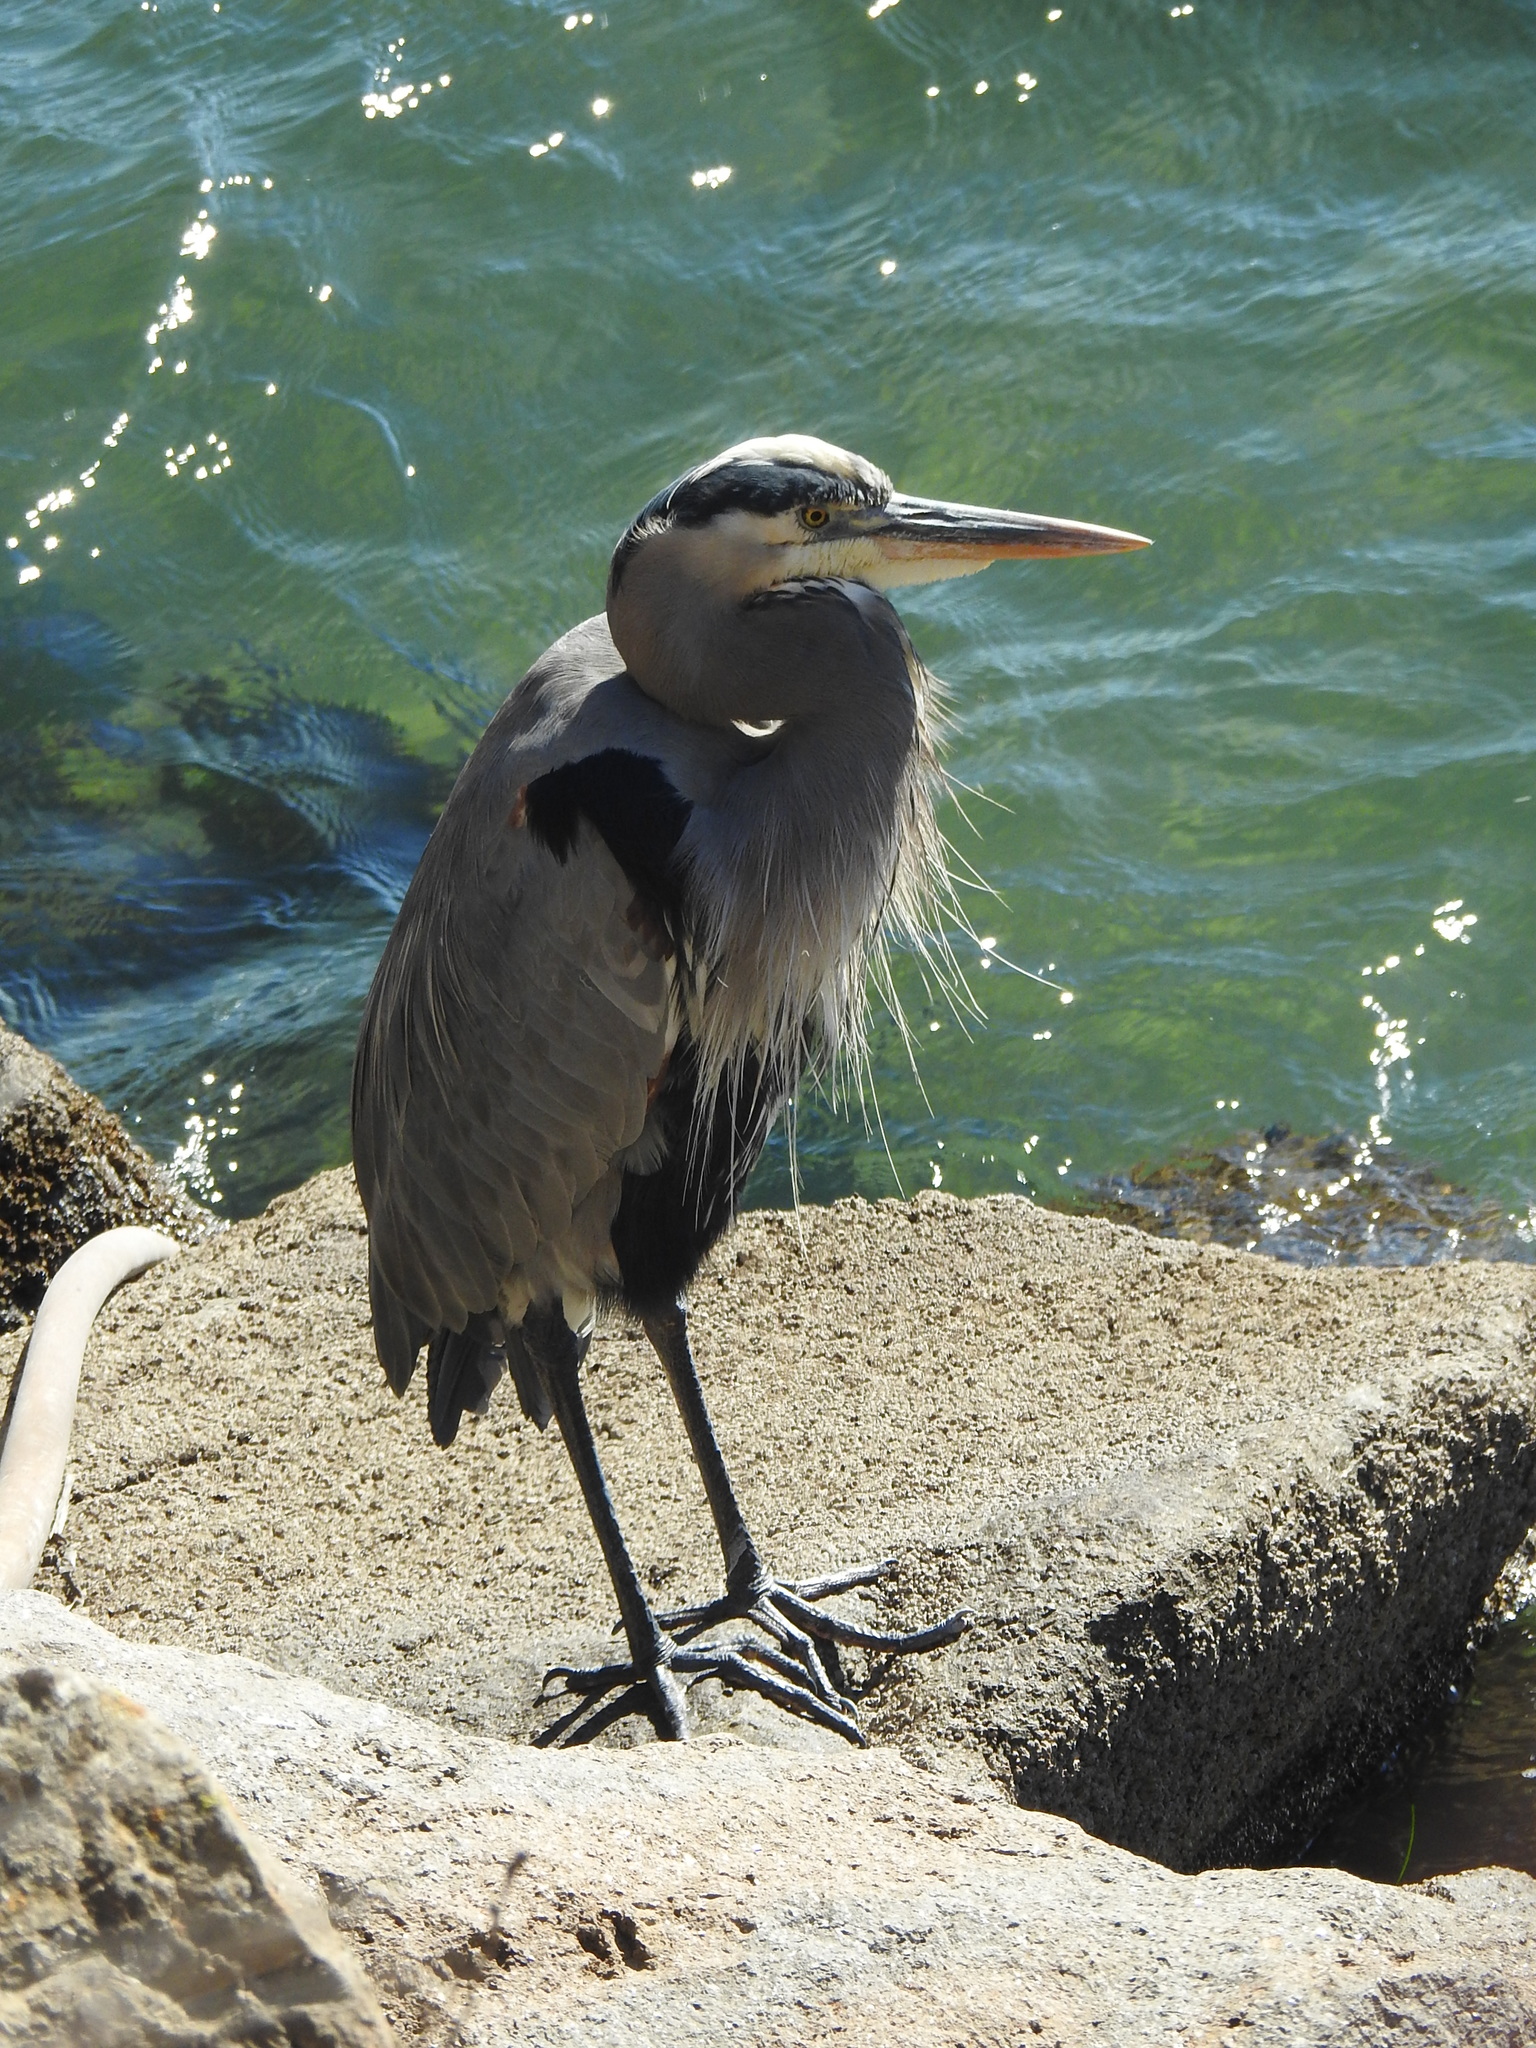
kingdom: Animalia
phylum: Chordata
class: Aves
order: Pelecaniformes
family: Ardeidae
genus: Ardea
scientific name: Ardea herodias
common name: Great blue heron
